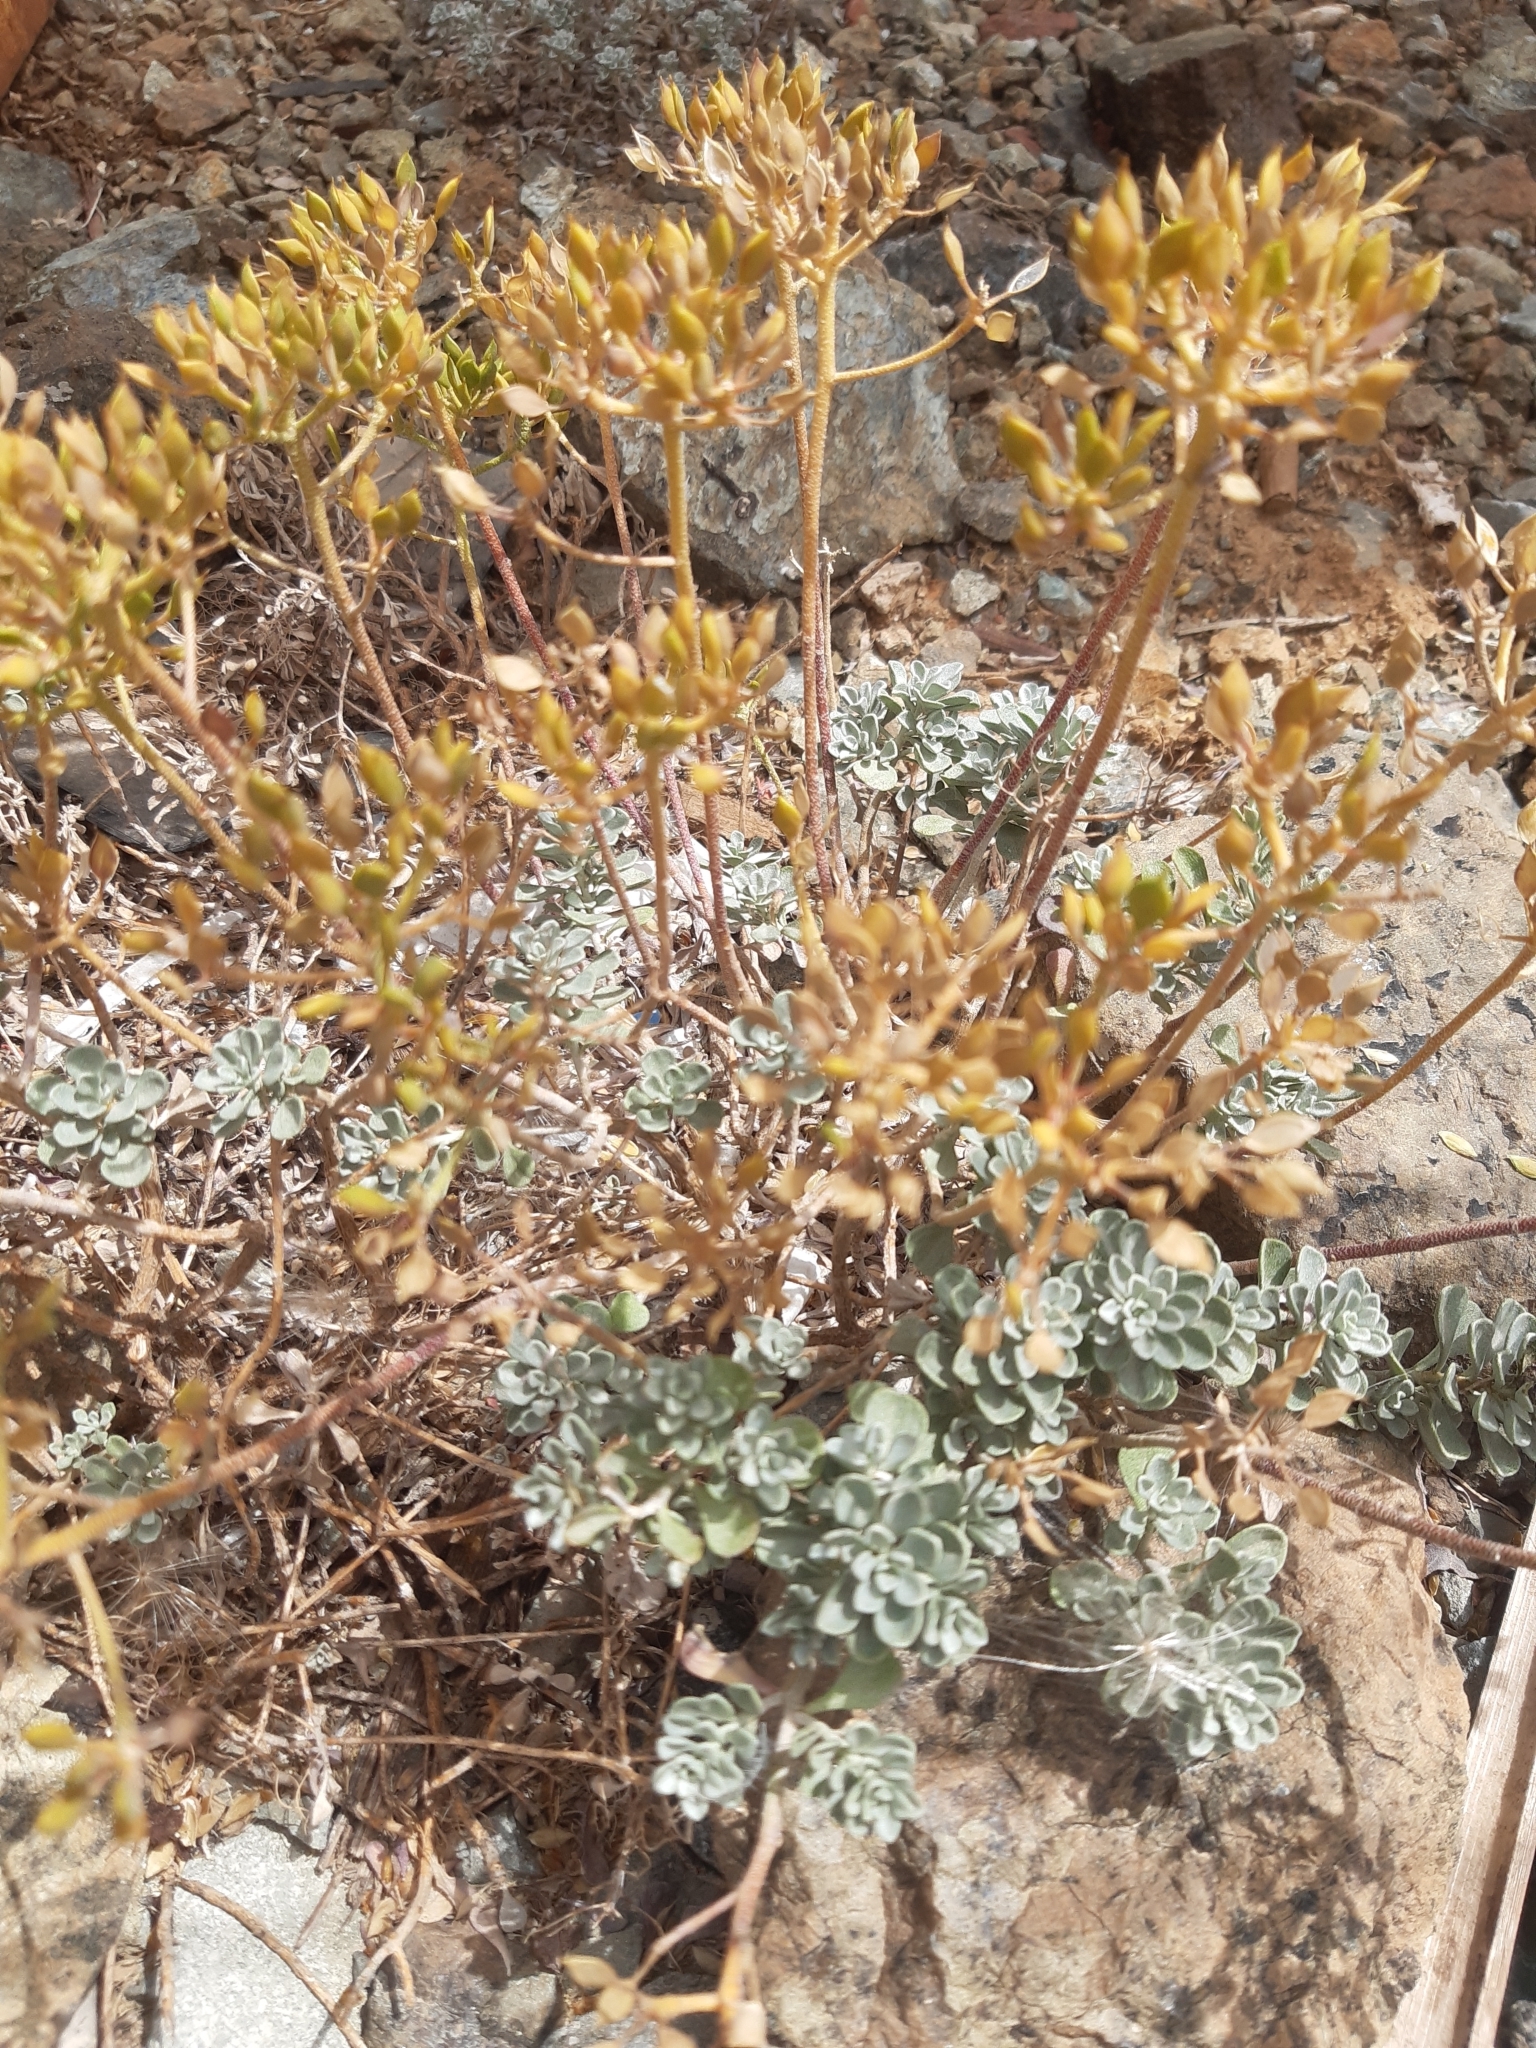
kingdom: Plantae
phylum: Tracheophyta
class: Magnoliopsida
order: Brassicales
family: Brassicaceae
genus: Odontarrhena
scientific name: Odontarrhena troodi
